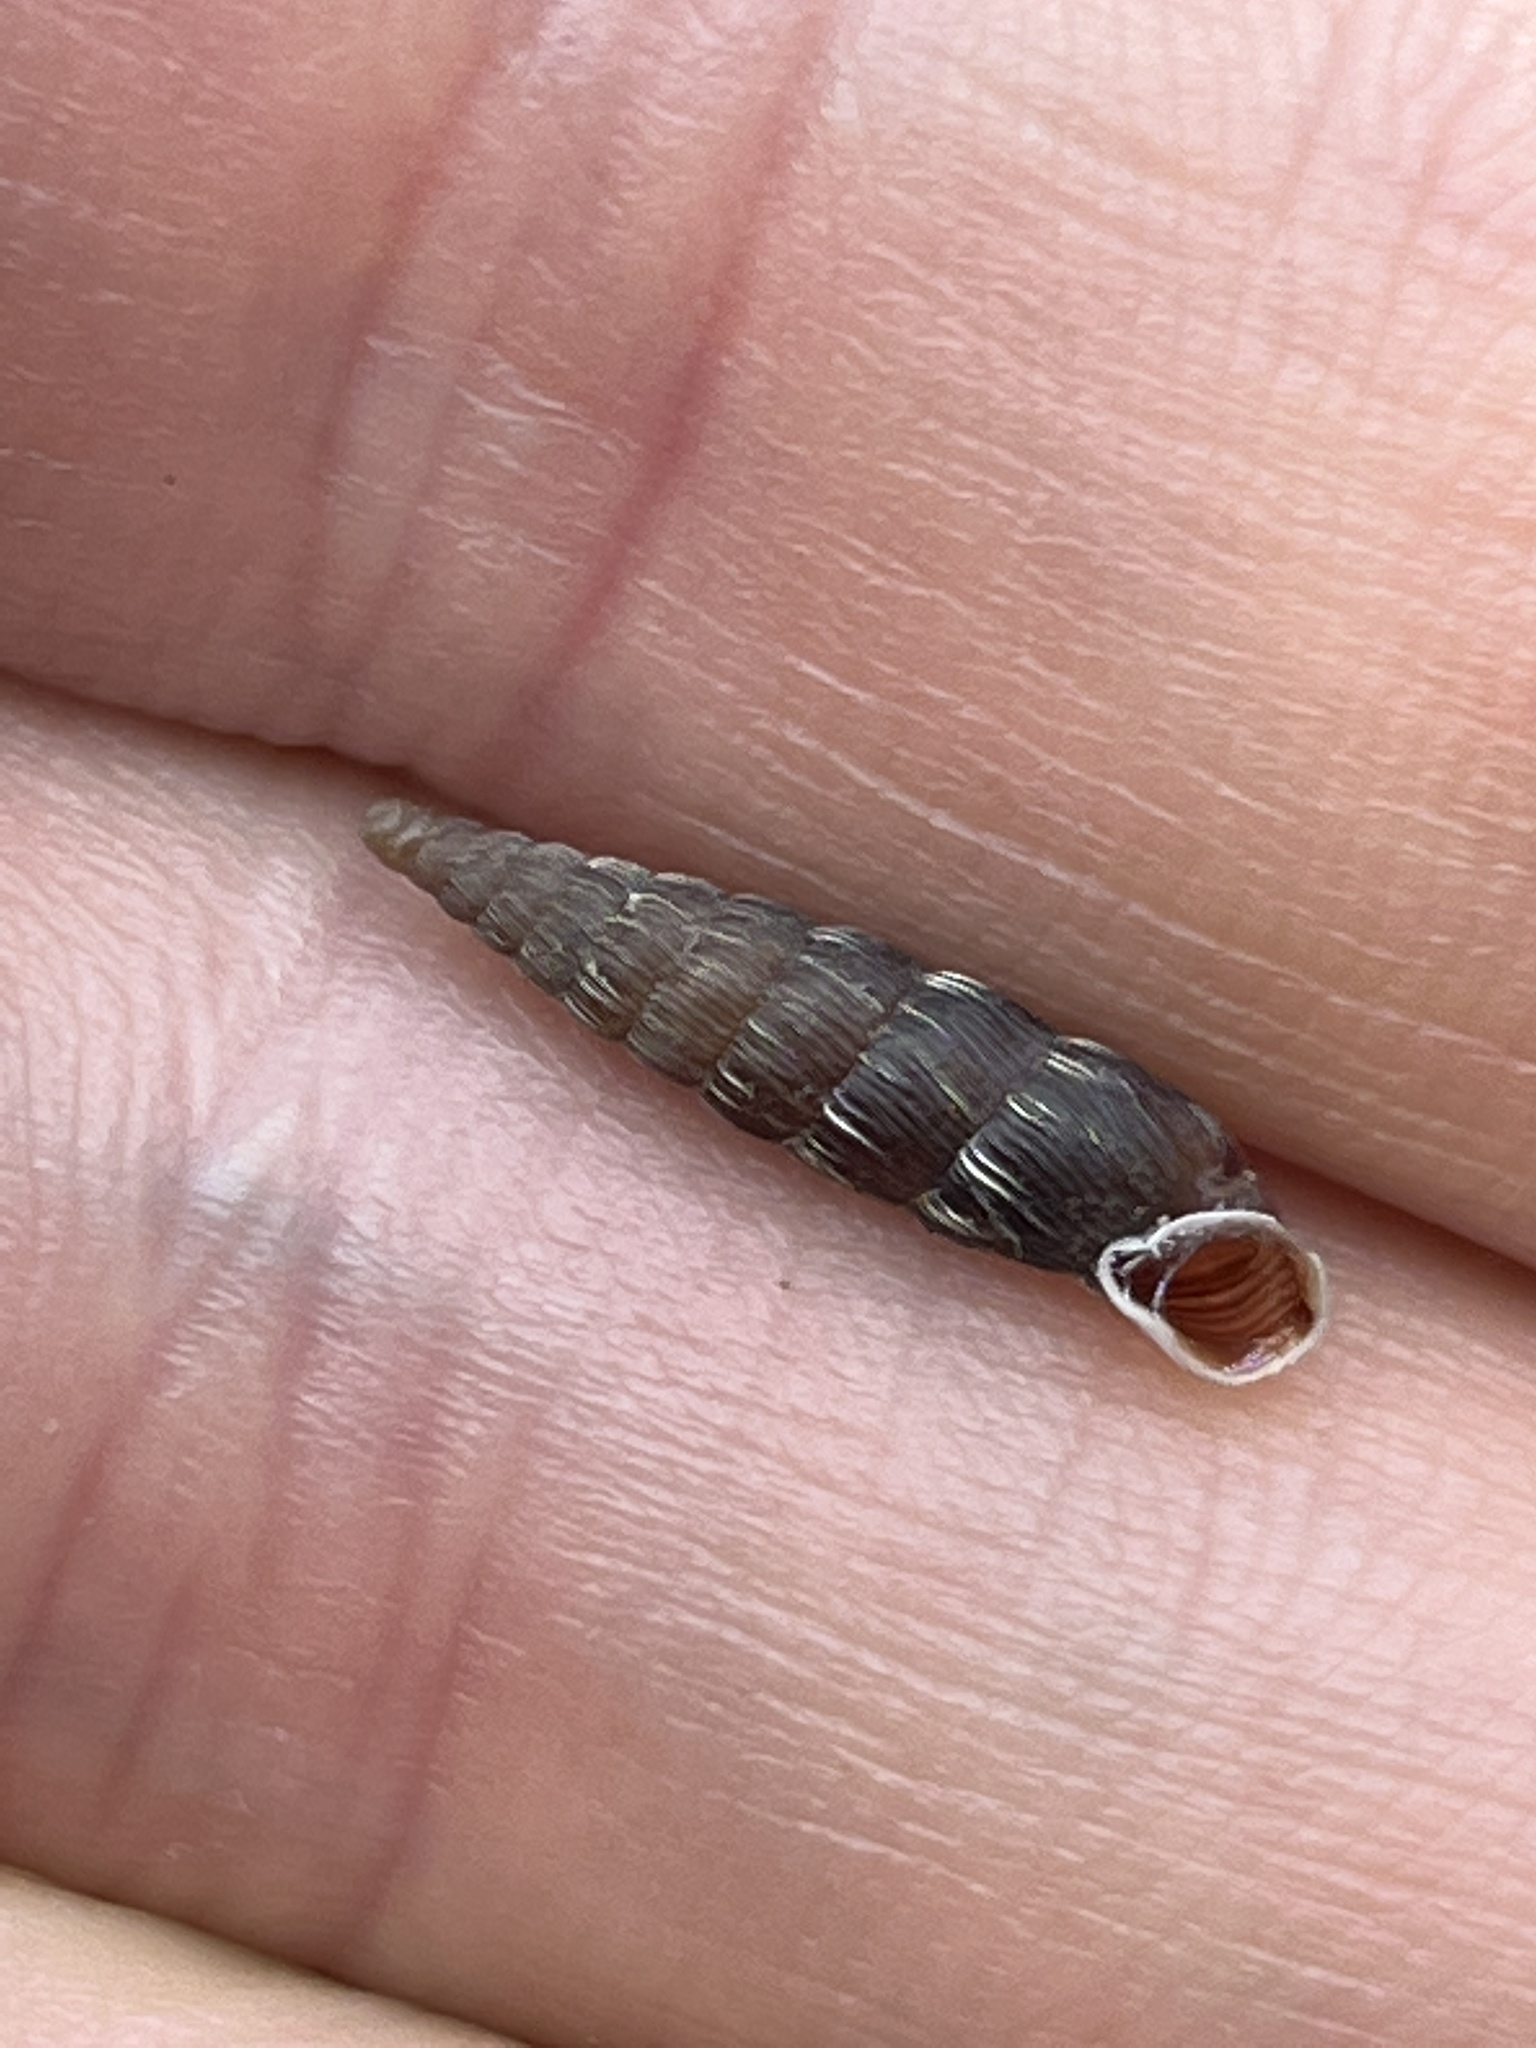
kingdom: Animalia
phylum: Mollusca
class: Gastropoda
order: Stylommatophora
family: Clausiliidae
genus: Alinda
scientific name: Alinda biplicata
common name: Thames door snail
